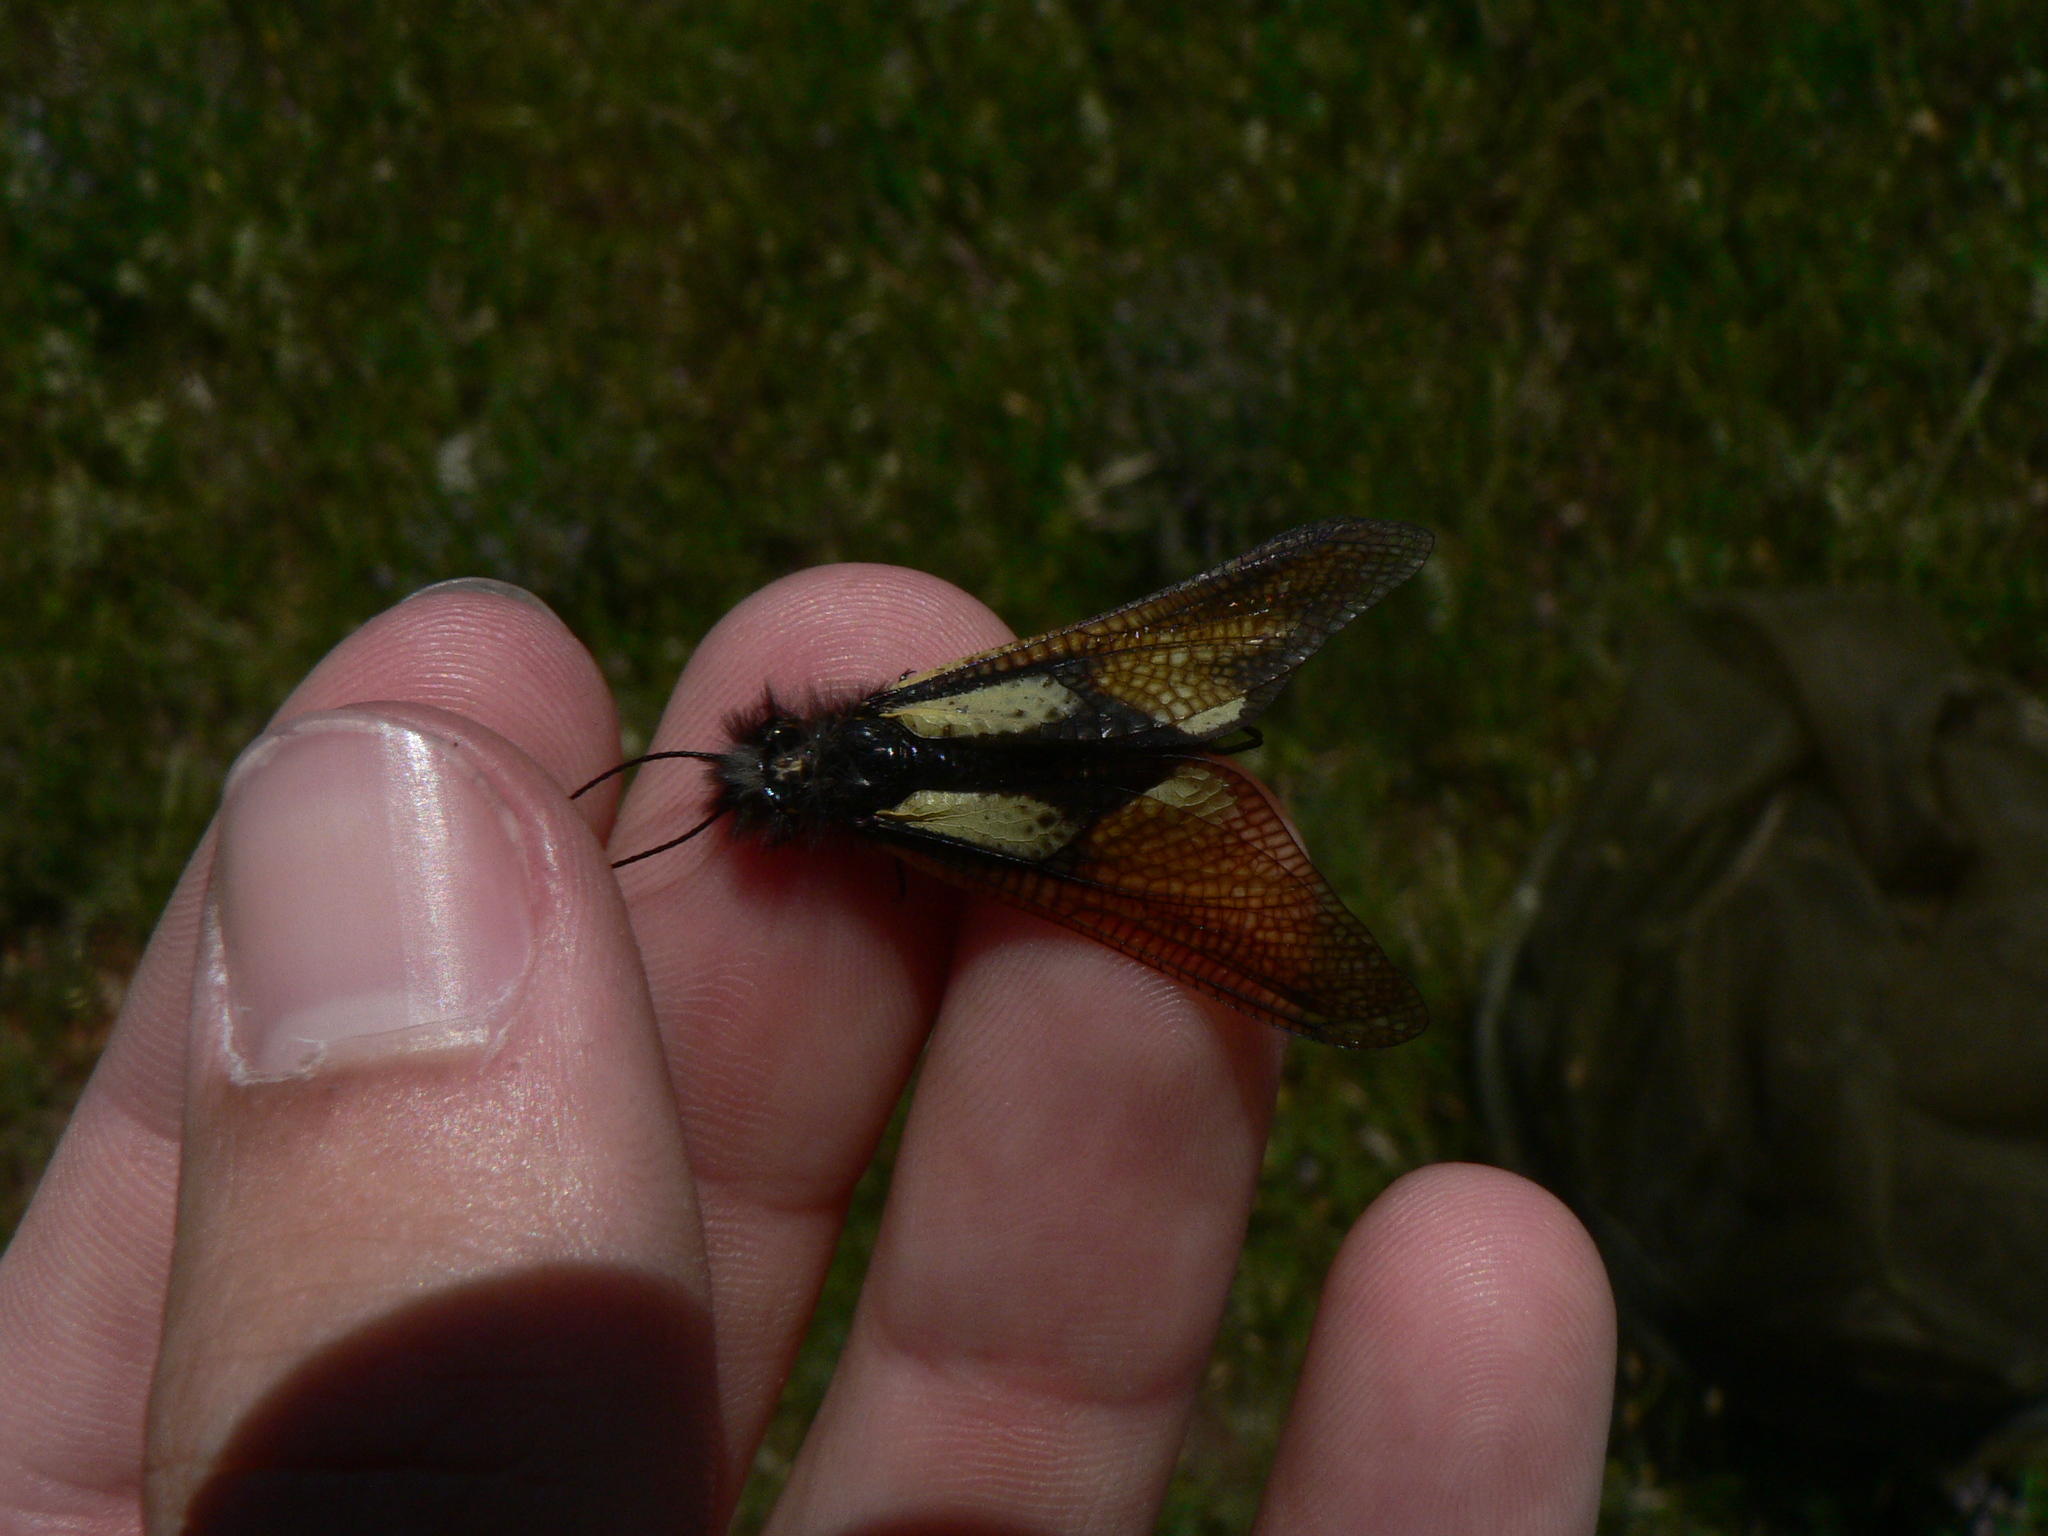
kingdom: Animalia
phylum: Arthropoda
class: Insecta
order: Neuroptera
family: Ascalaphidae
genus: Libelloides
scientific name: Libelloides coccajus
